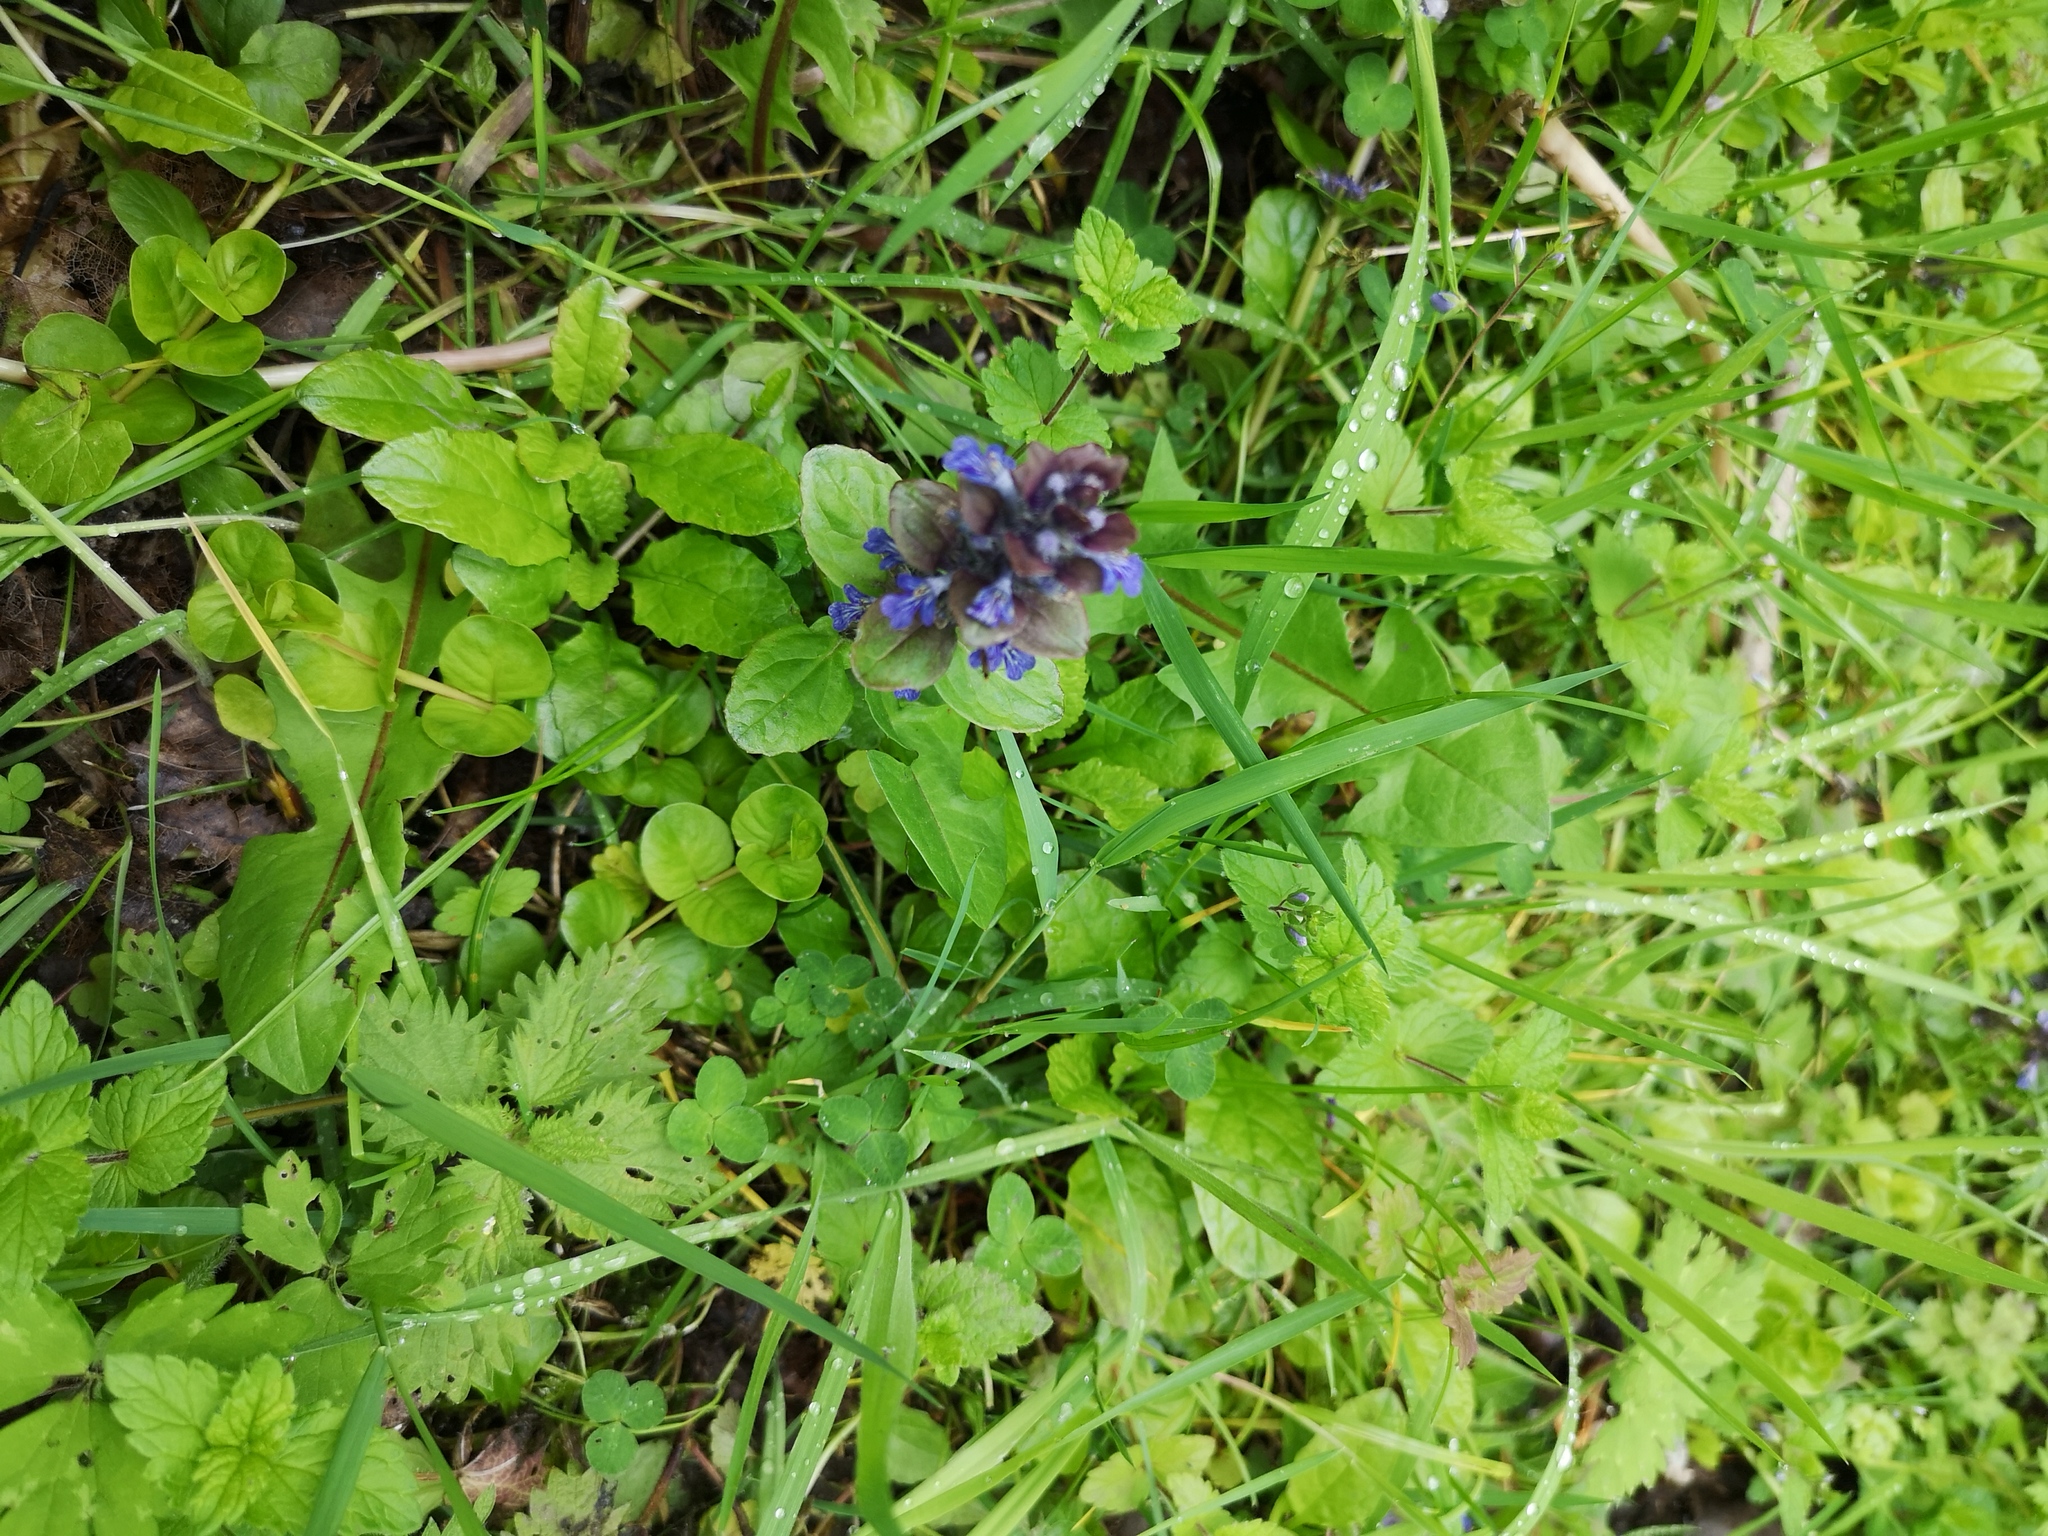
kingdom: Plantae
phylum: Tracheophyta
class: Magnoliopsida
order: Lamiales
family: Lamiaceae
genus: Ajuga
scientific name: Ajuga reptans
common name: Bugle
